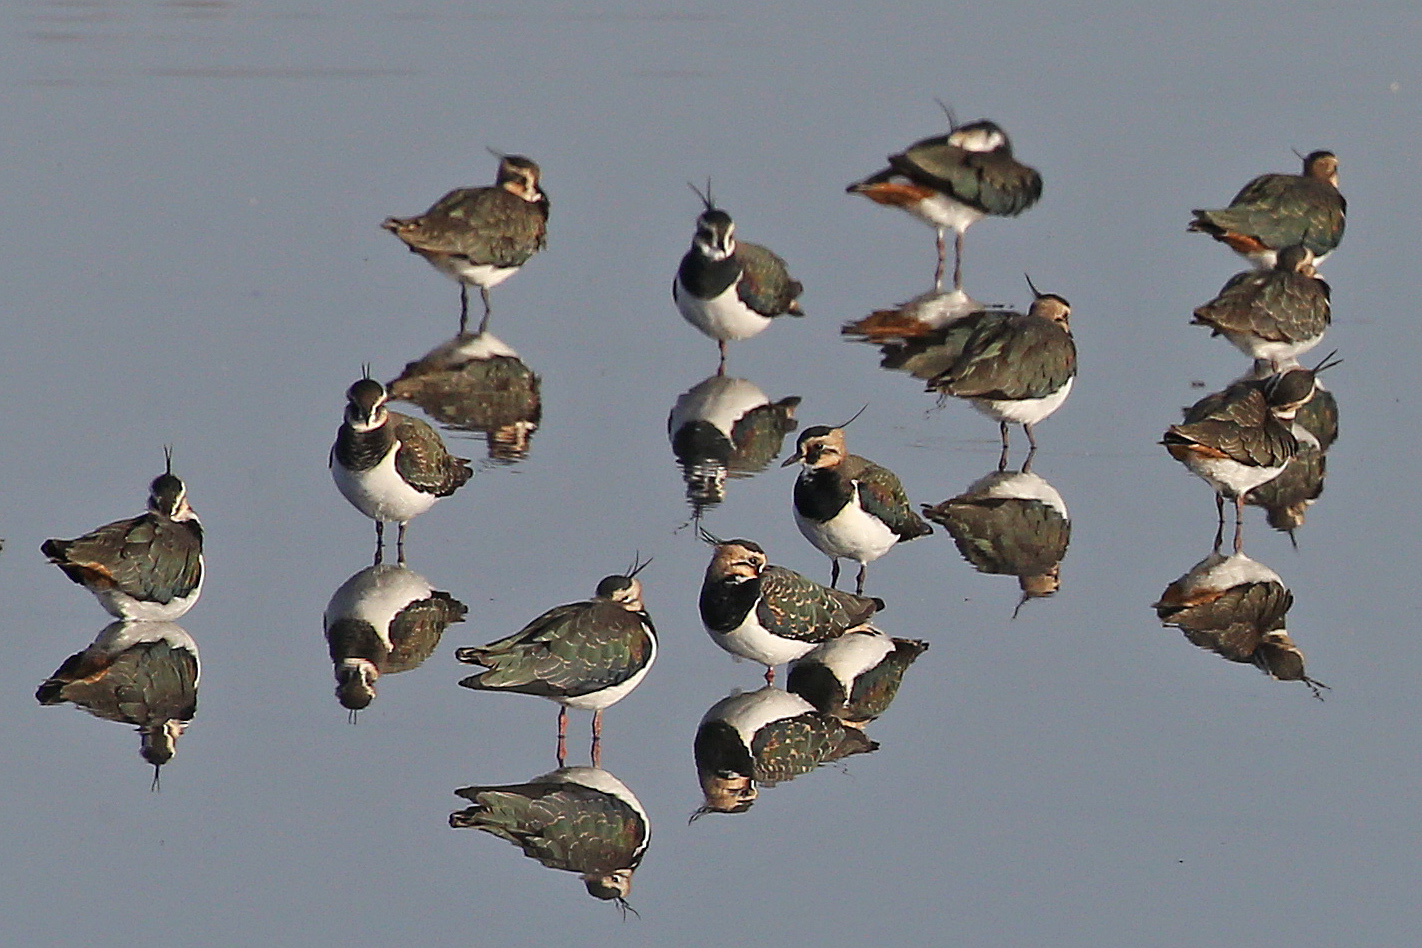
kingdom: Animalia
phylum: Chordata
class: Aves
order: Charadriiformes
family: Charadriidae
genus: Vanellus
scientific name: Vanellus vanellus
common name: Northern lapwing
